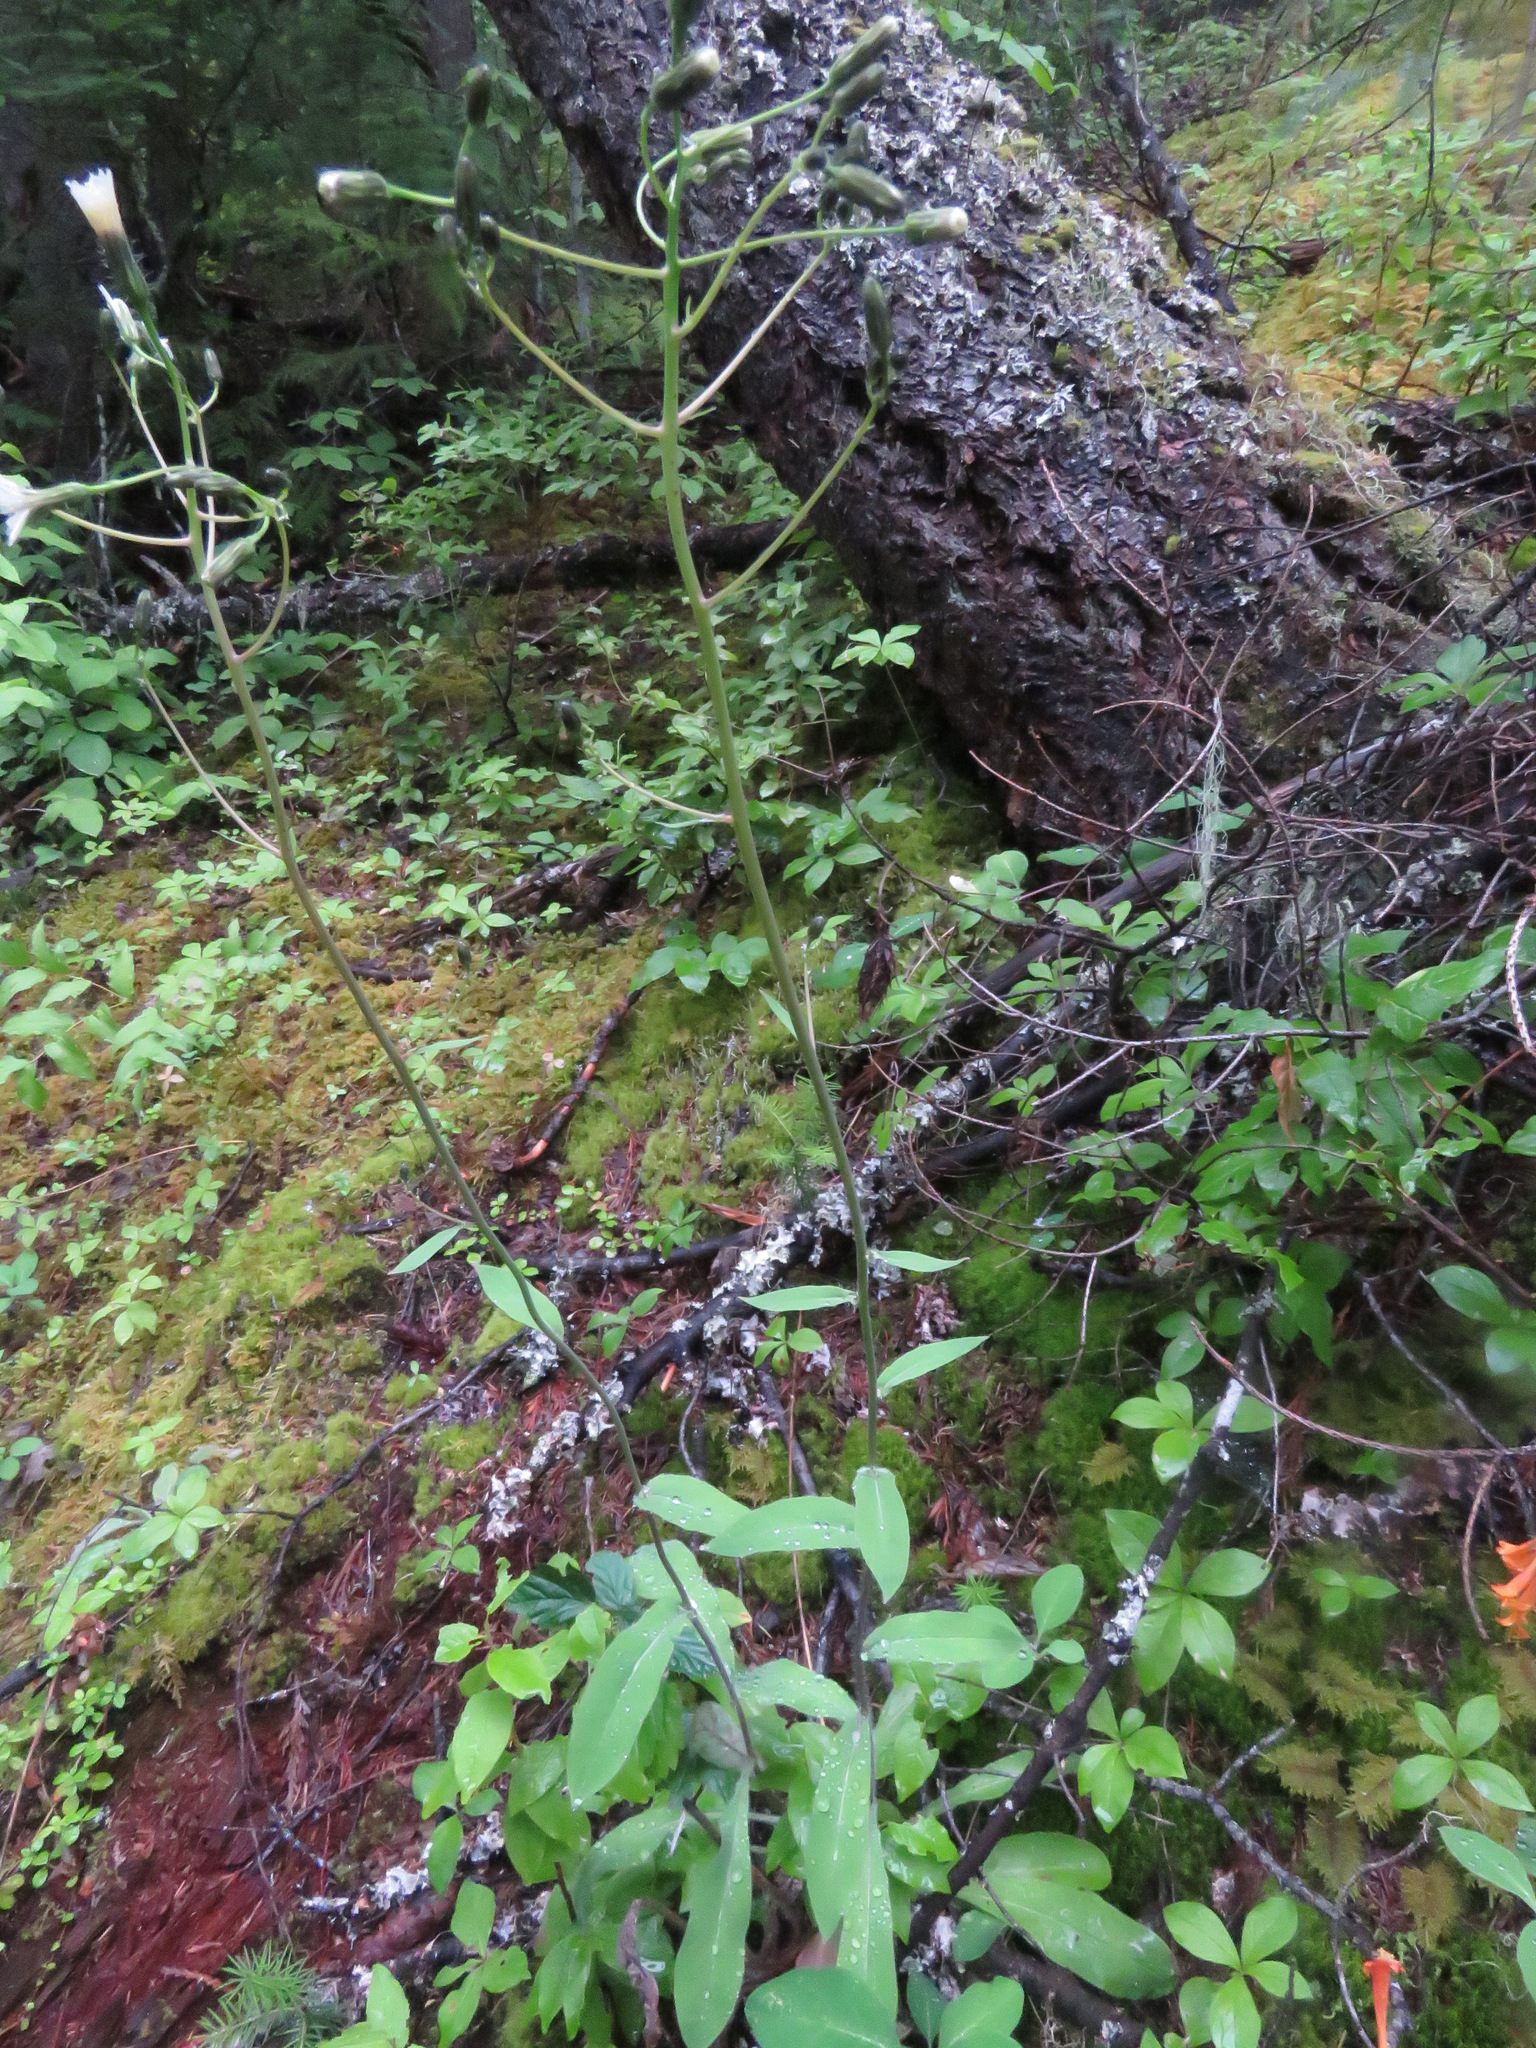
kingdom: Plantae
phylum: Tracheophyta
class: Magnoliopsida
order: Asterales
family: Asteraceae
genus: Hieracium
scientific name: Hieracium albiflorum
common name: White hawkweed
